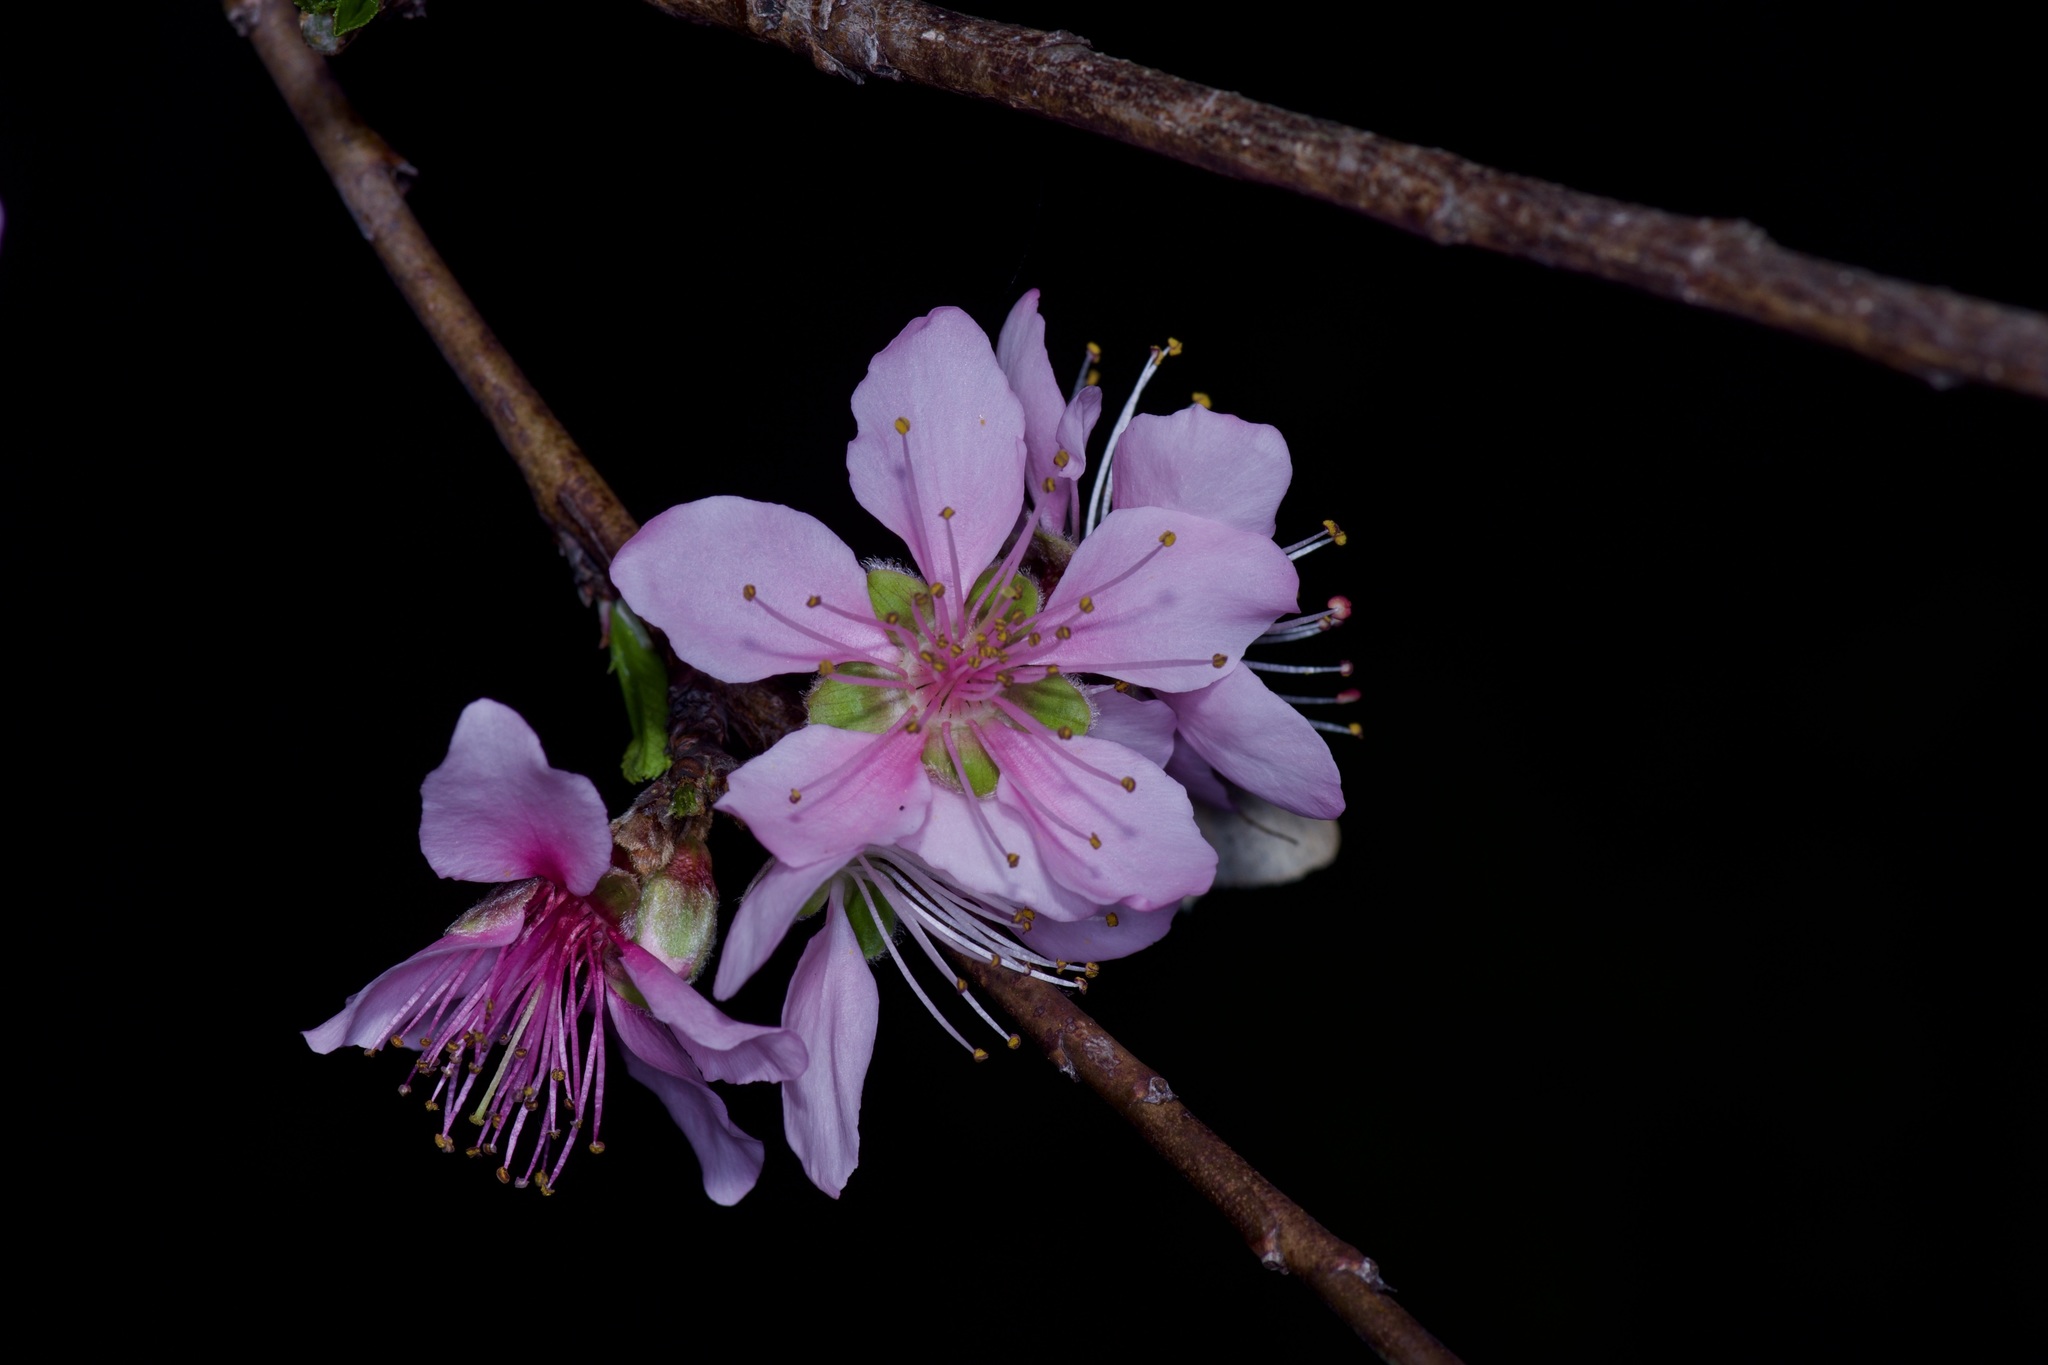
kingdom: Plantae
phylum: Tracheophyta
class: Magnoliopsida
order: Rosales
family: Rosaceae
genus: Prunus
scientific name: Prunus persica
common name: Peach
